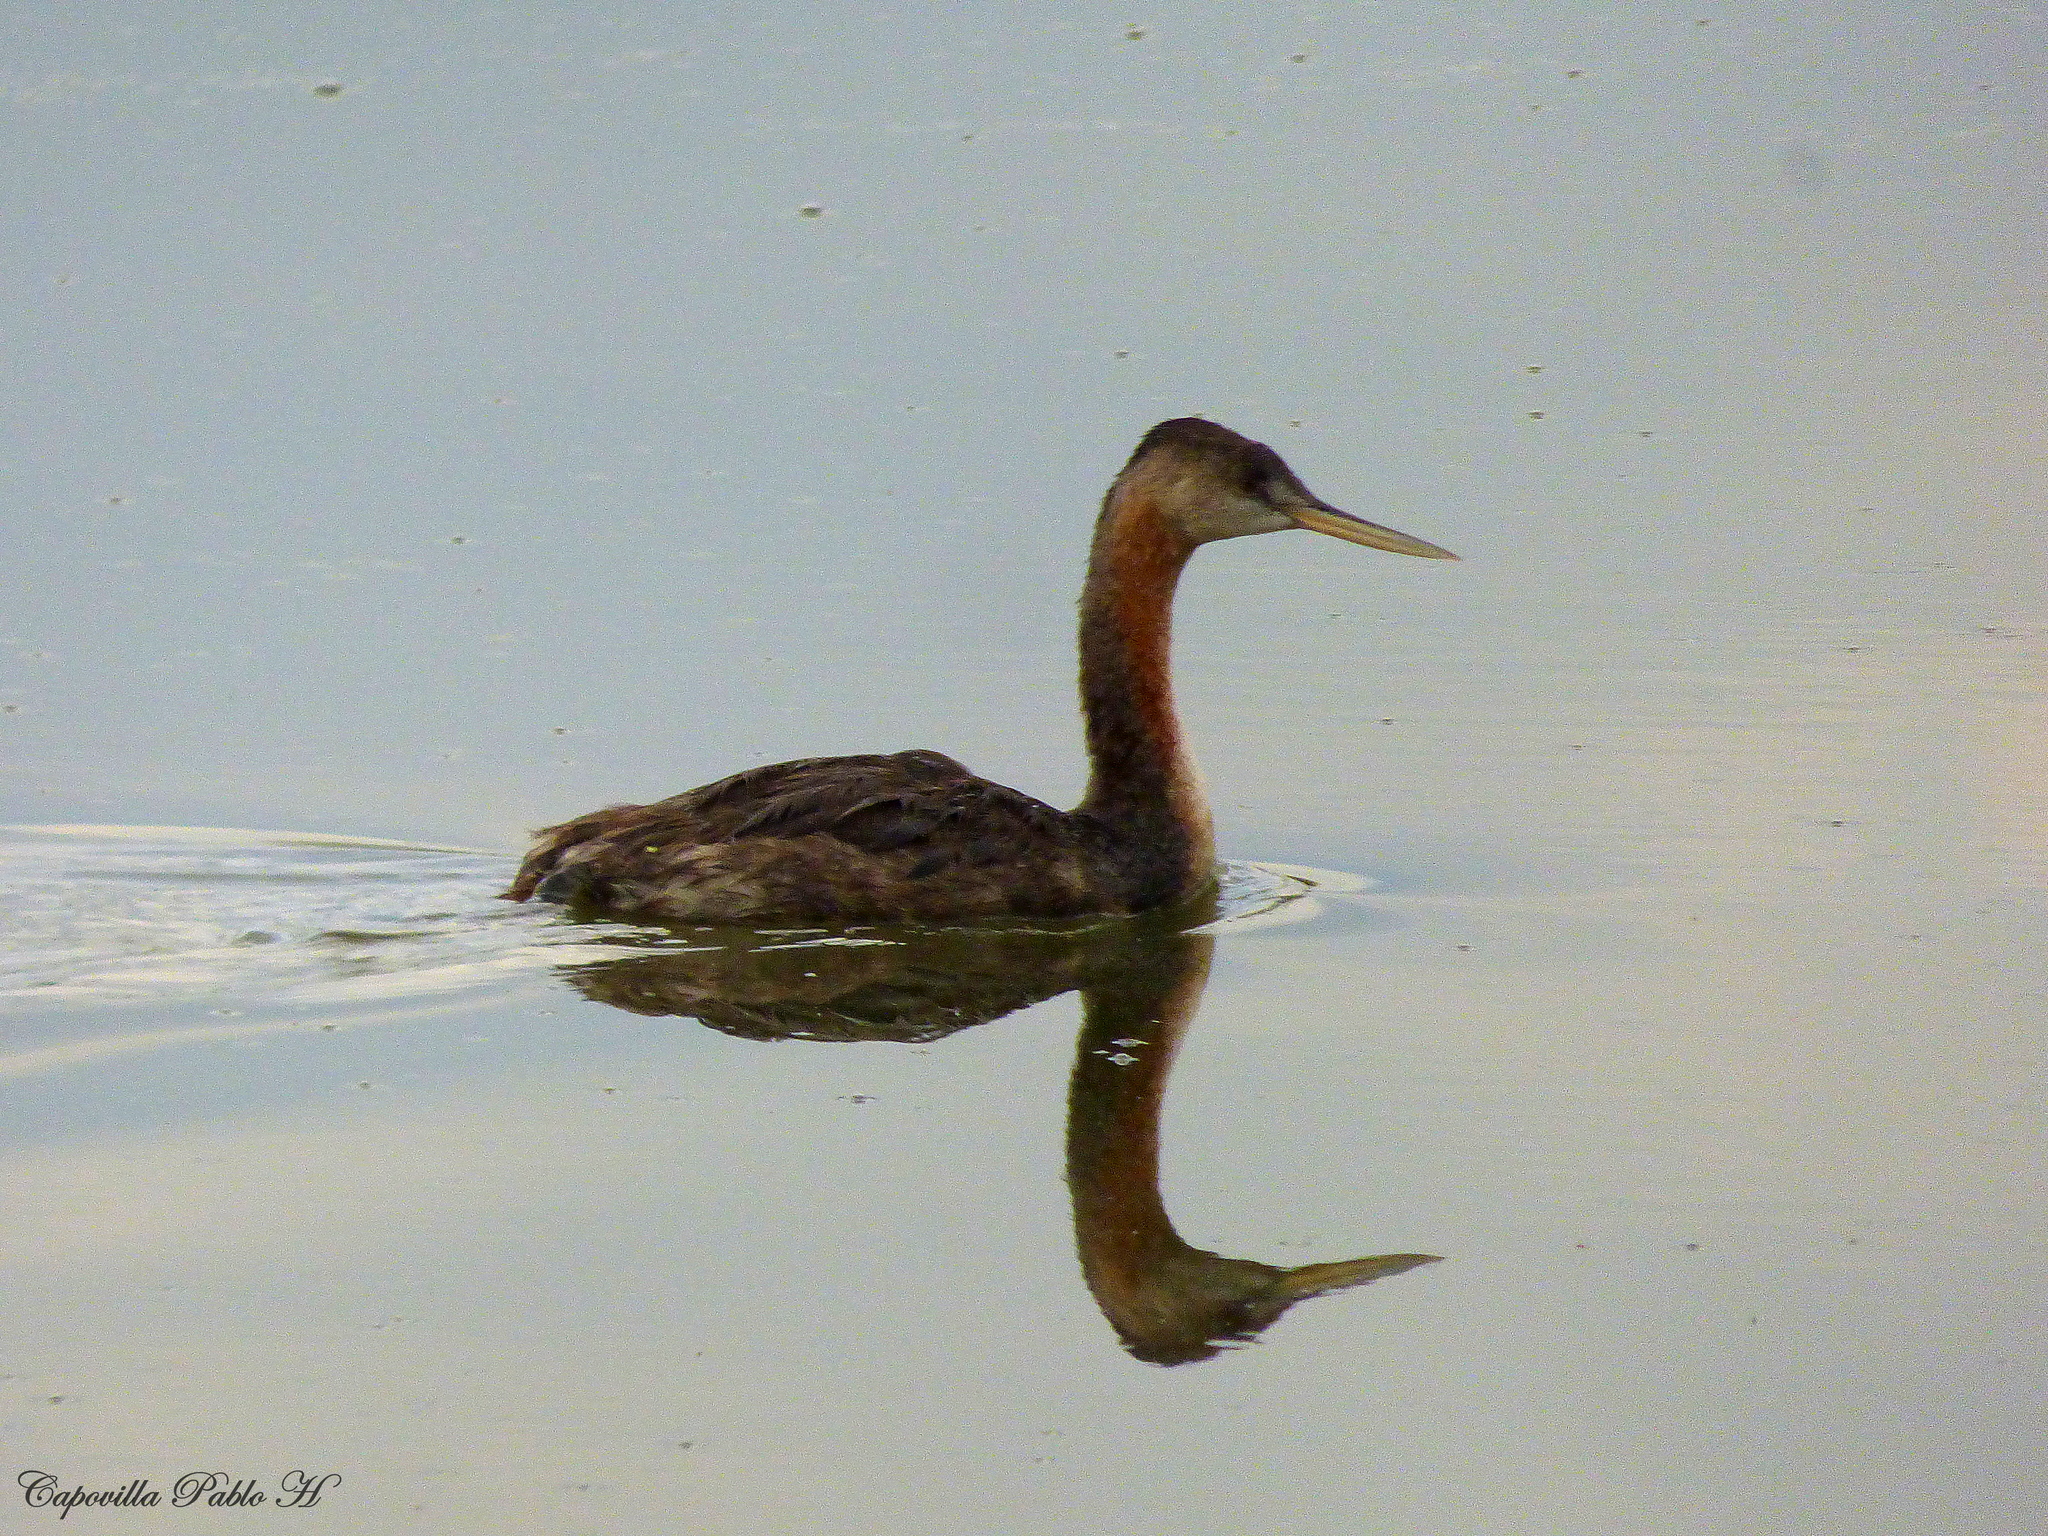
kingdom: Animalia
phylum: Chordata
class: Aves
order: Podicipediformes
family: Podicipedidae
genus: Podiceps
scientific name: Podiceps major
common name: Great grebe
